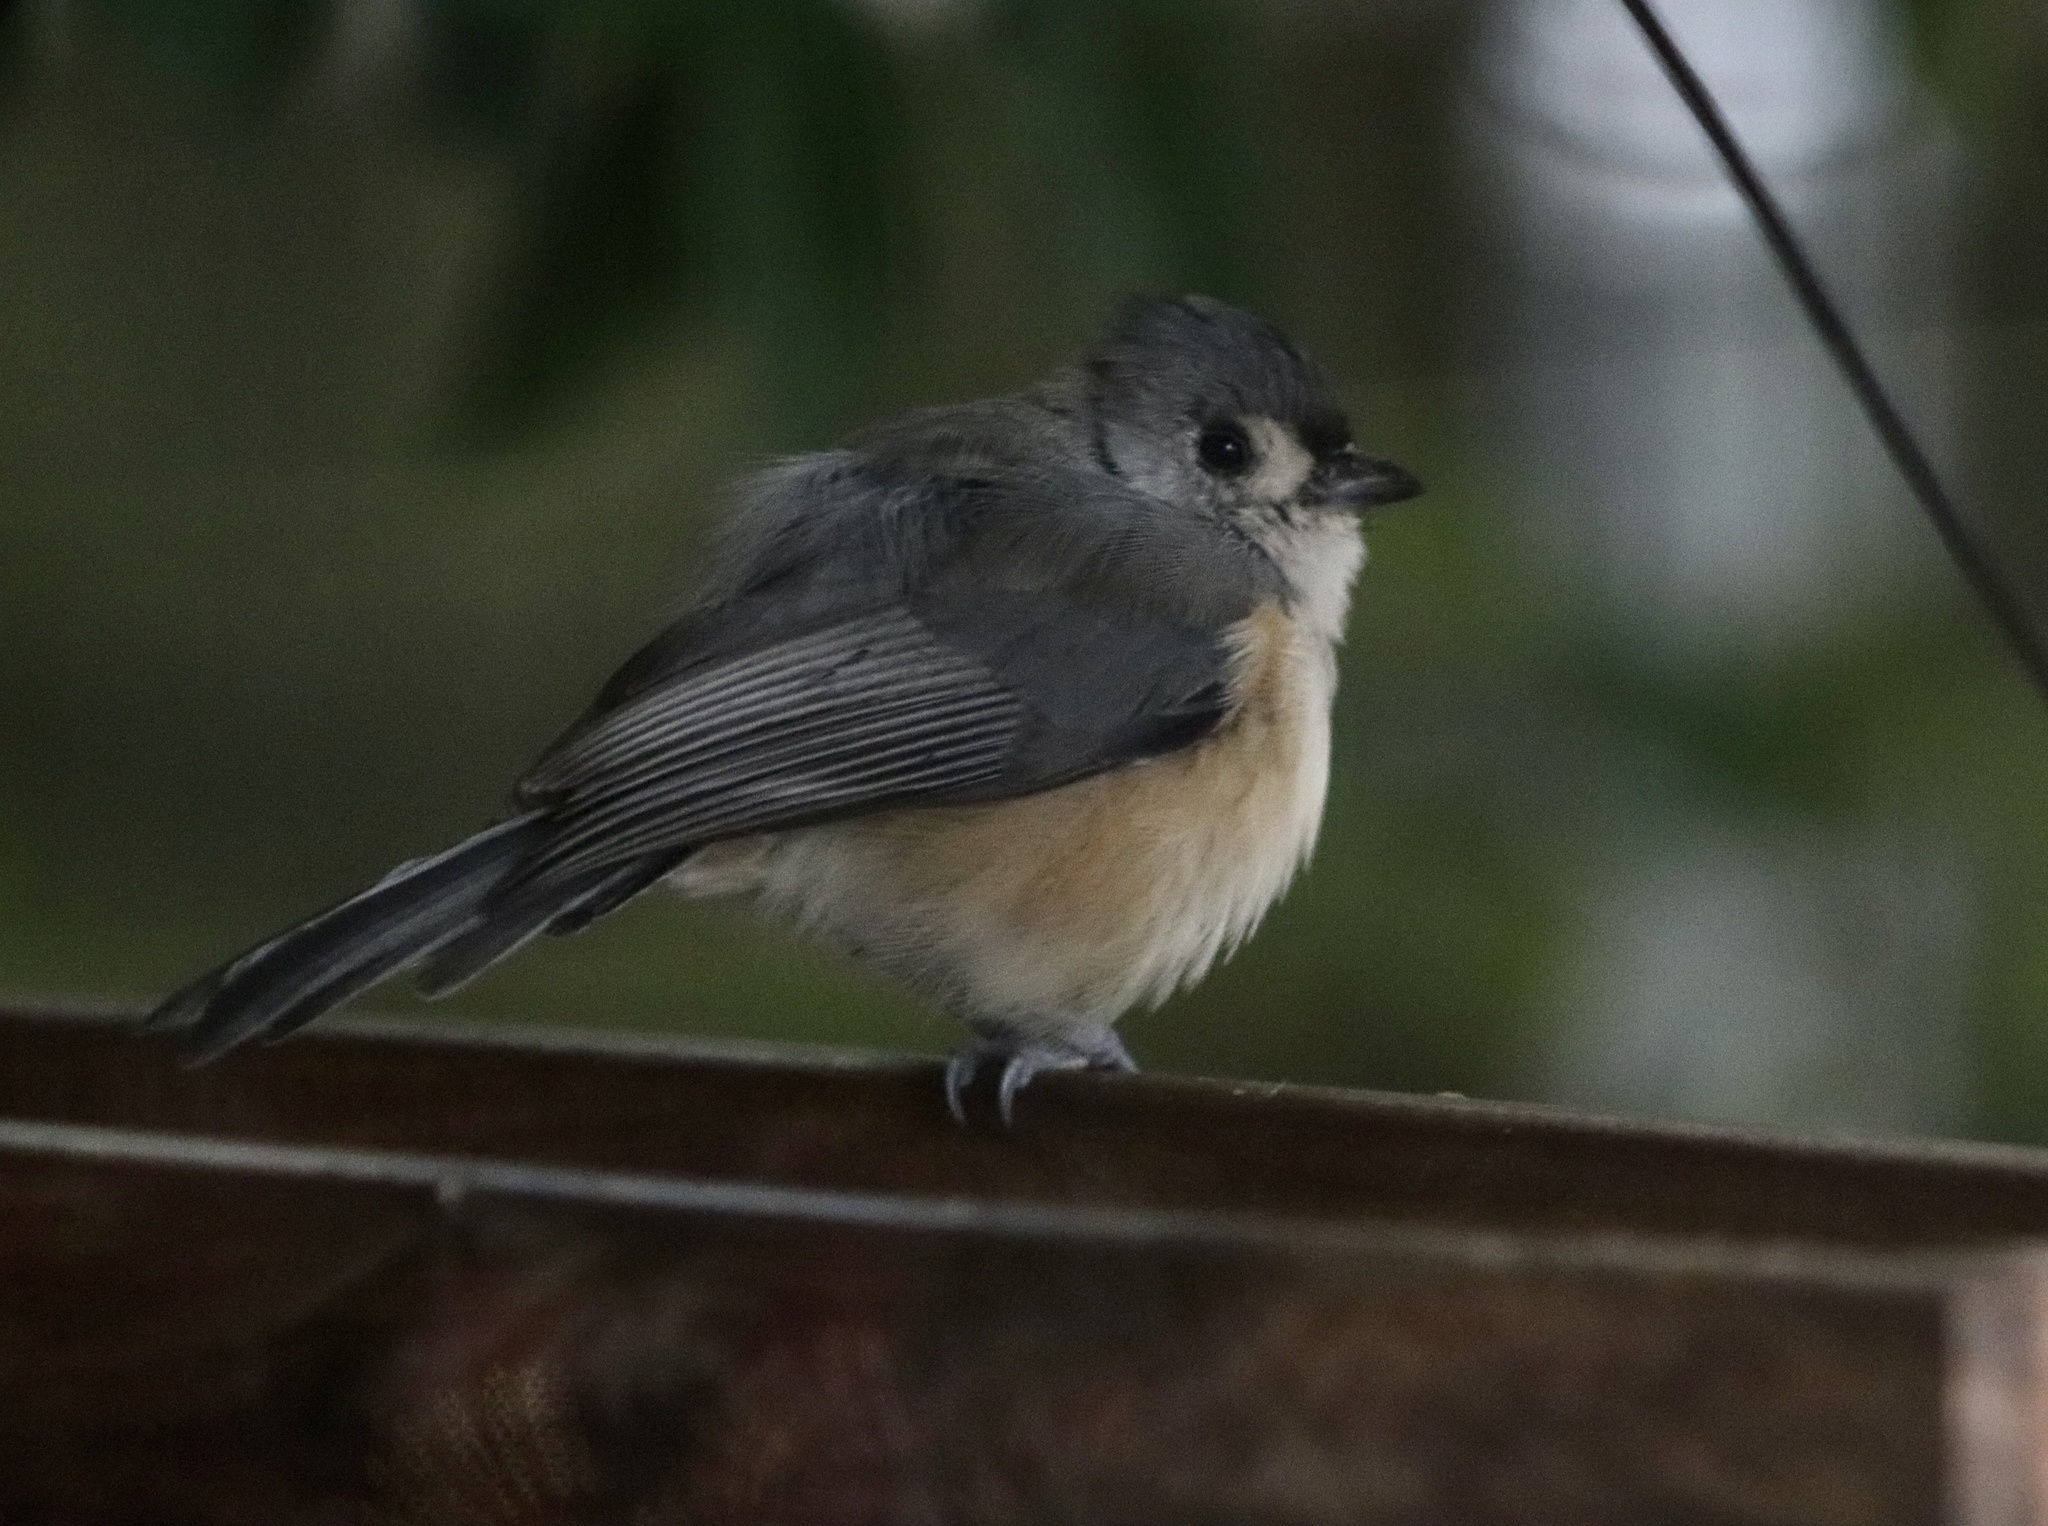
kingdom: Animalia
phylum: Chordata
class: Aves
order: Passeriformes
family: Paridae
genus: Baeolophus
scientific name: Baeolophus bicolor
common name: Tufted titmouse
